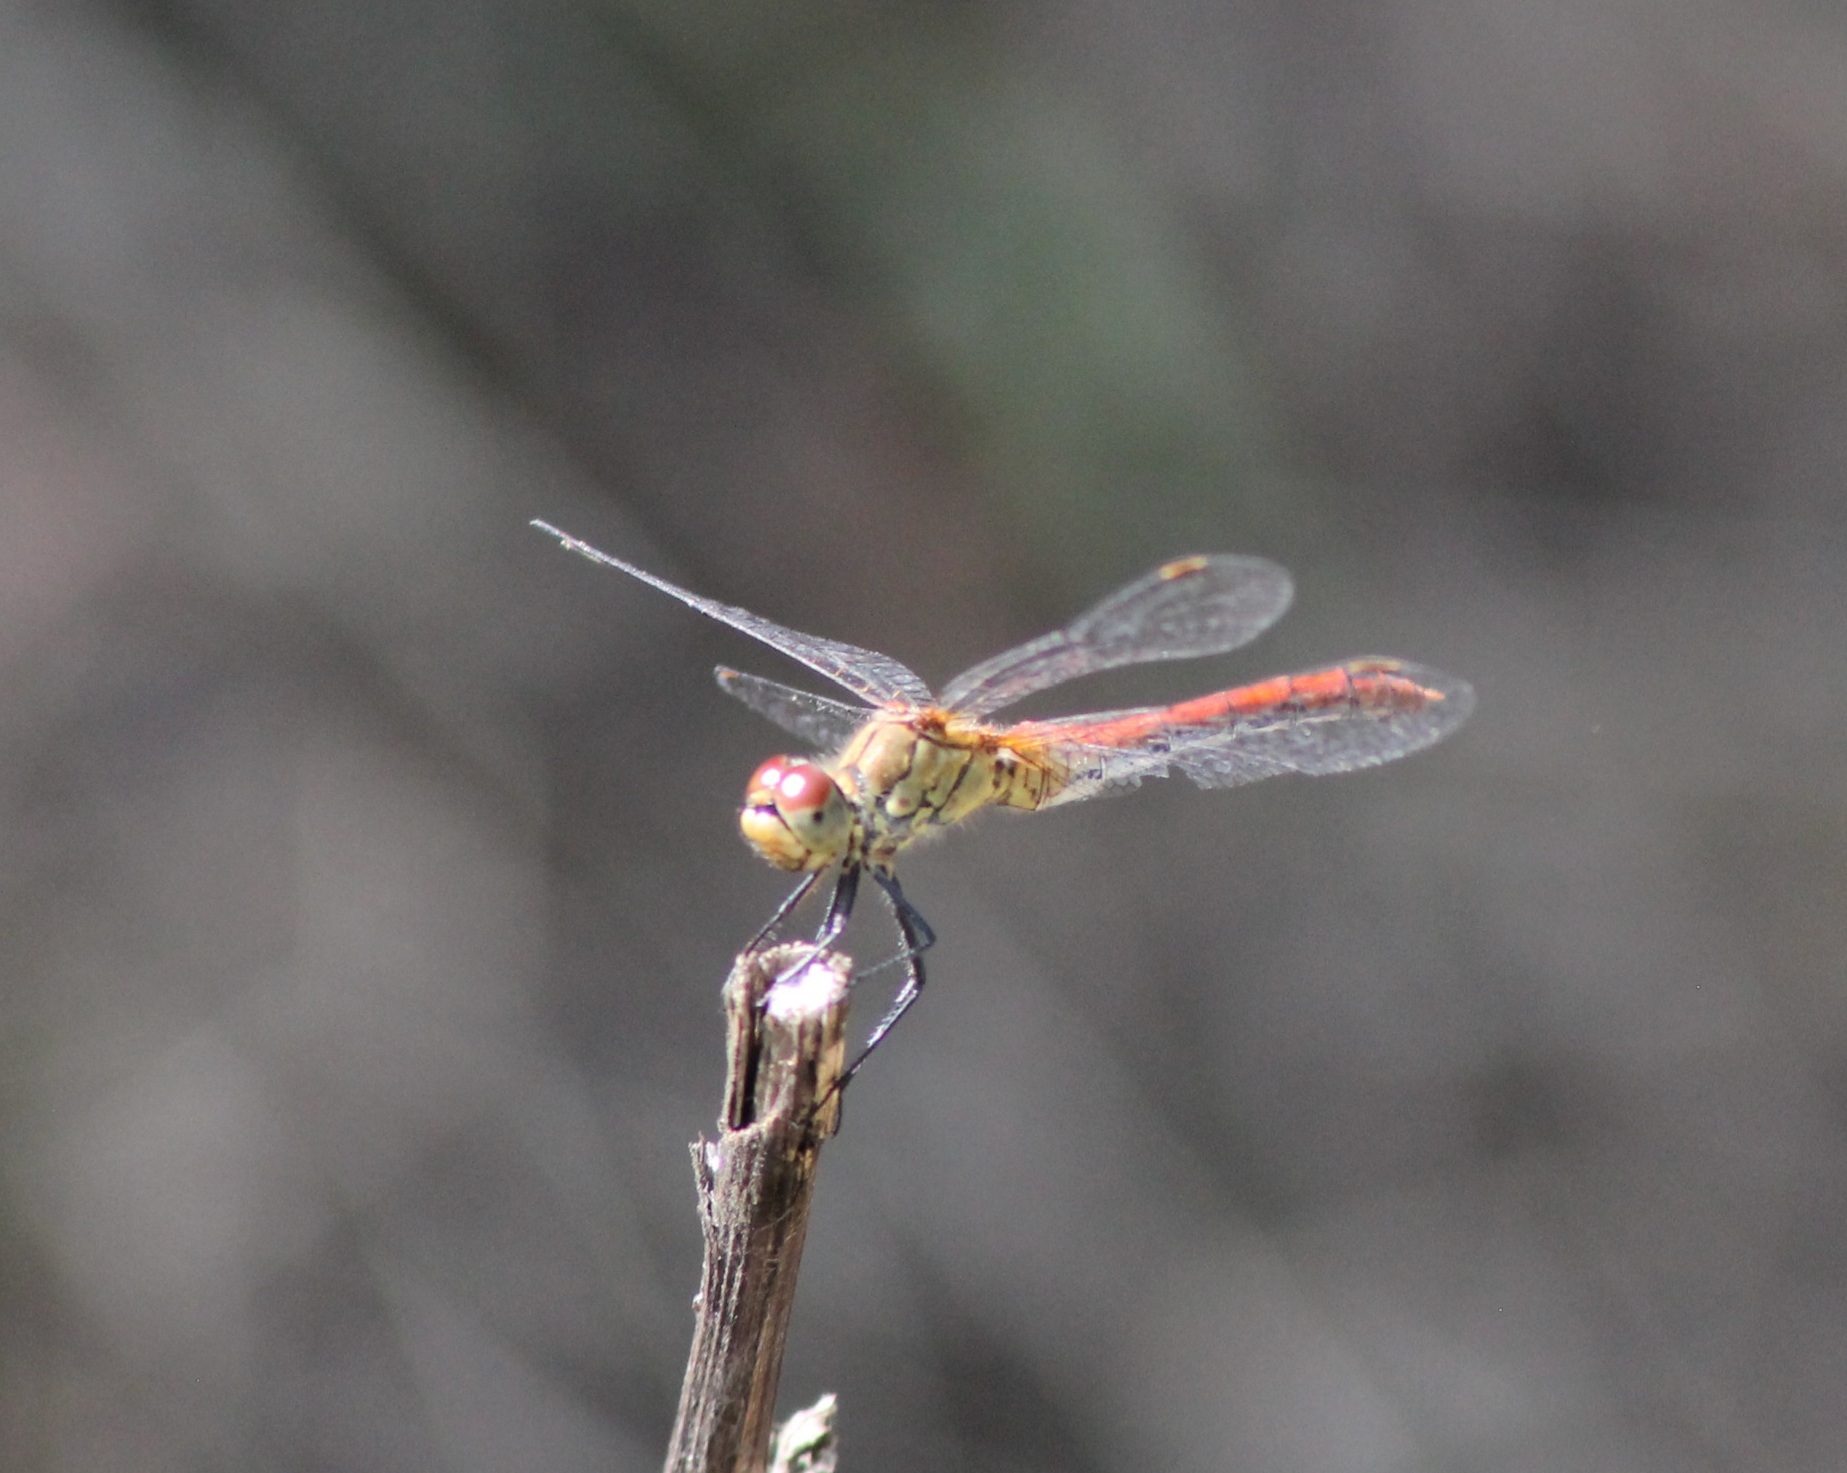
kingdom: Animalia
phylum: Arthropoda
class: Insecta
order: Odonata
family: Libellulidae
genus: Sympetrum
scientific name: Sympetrum sanguineum
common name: Ruddy darter
